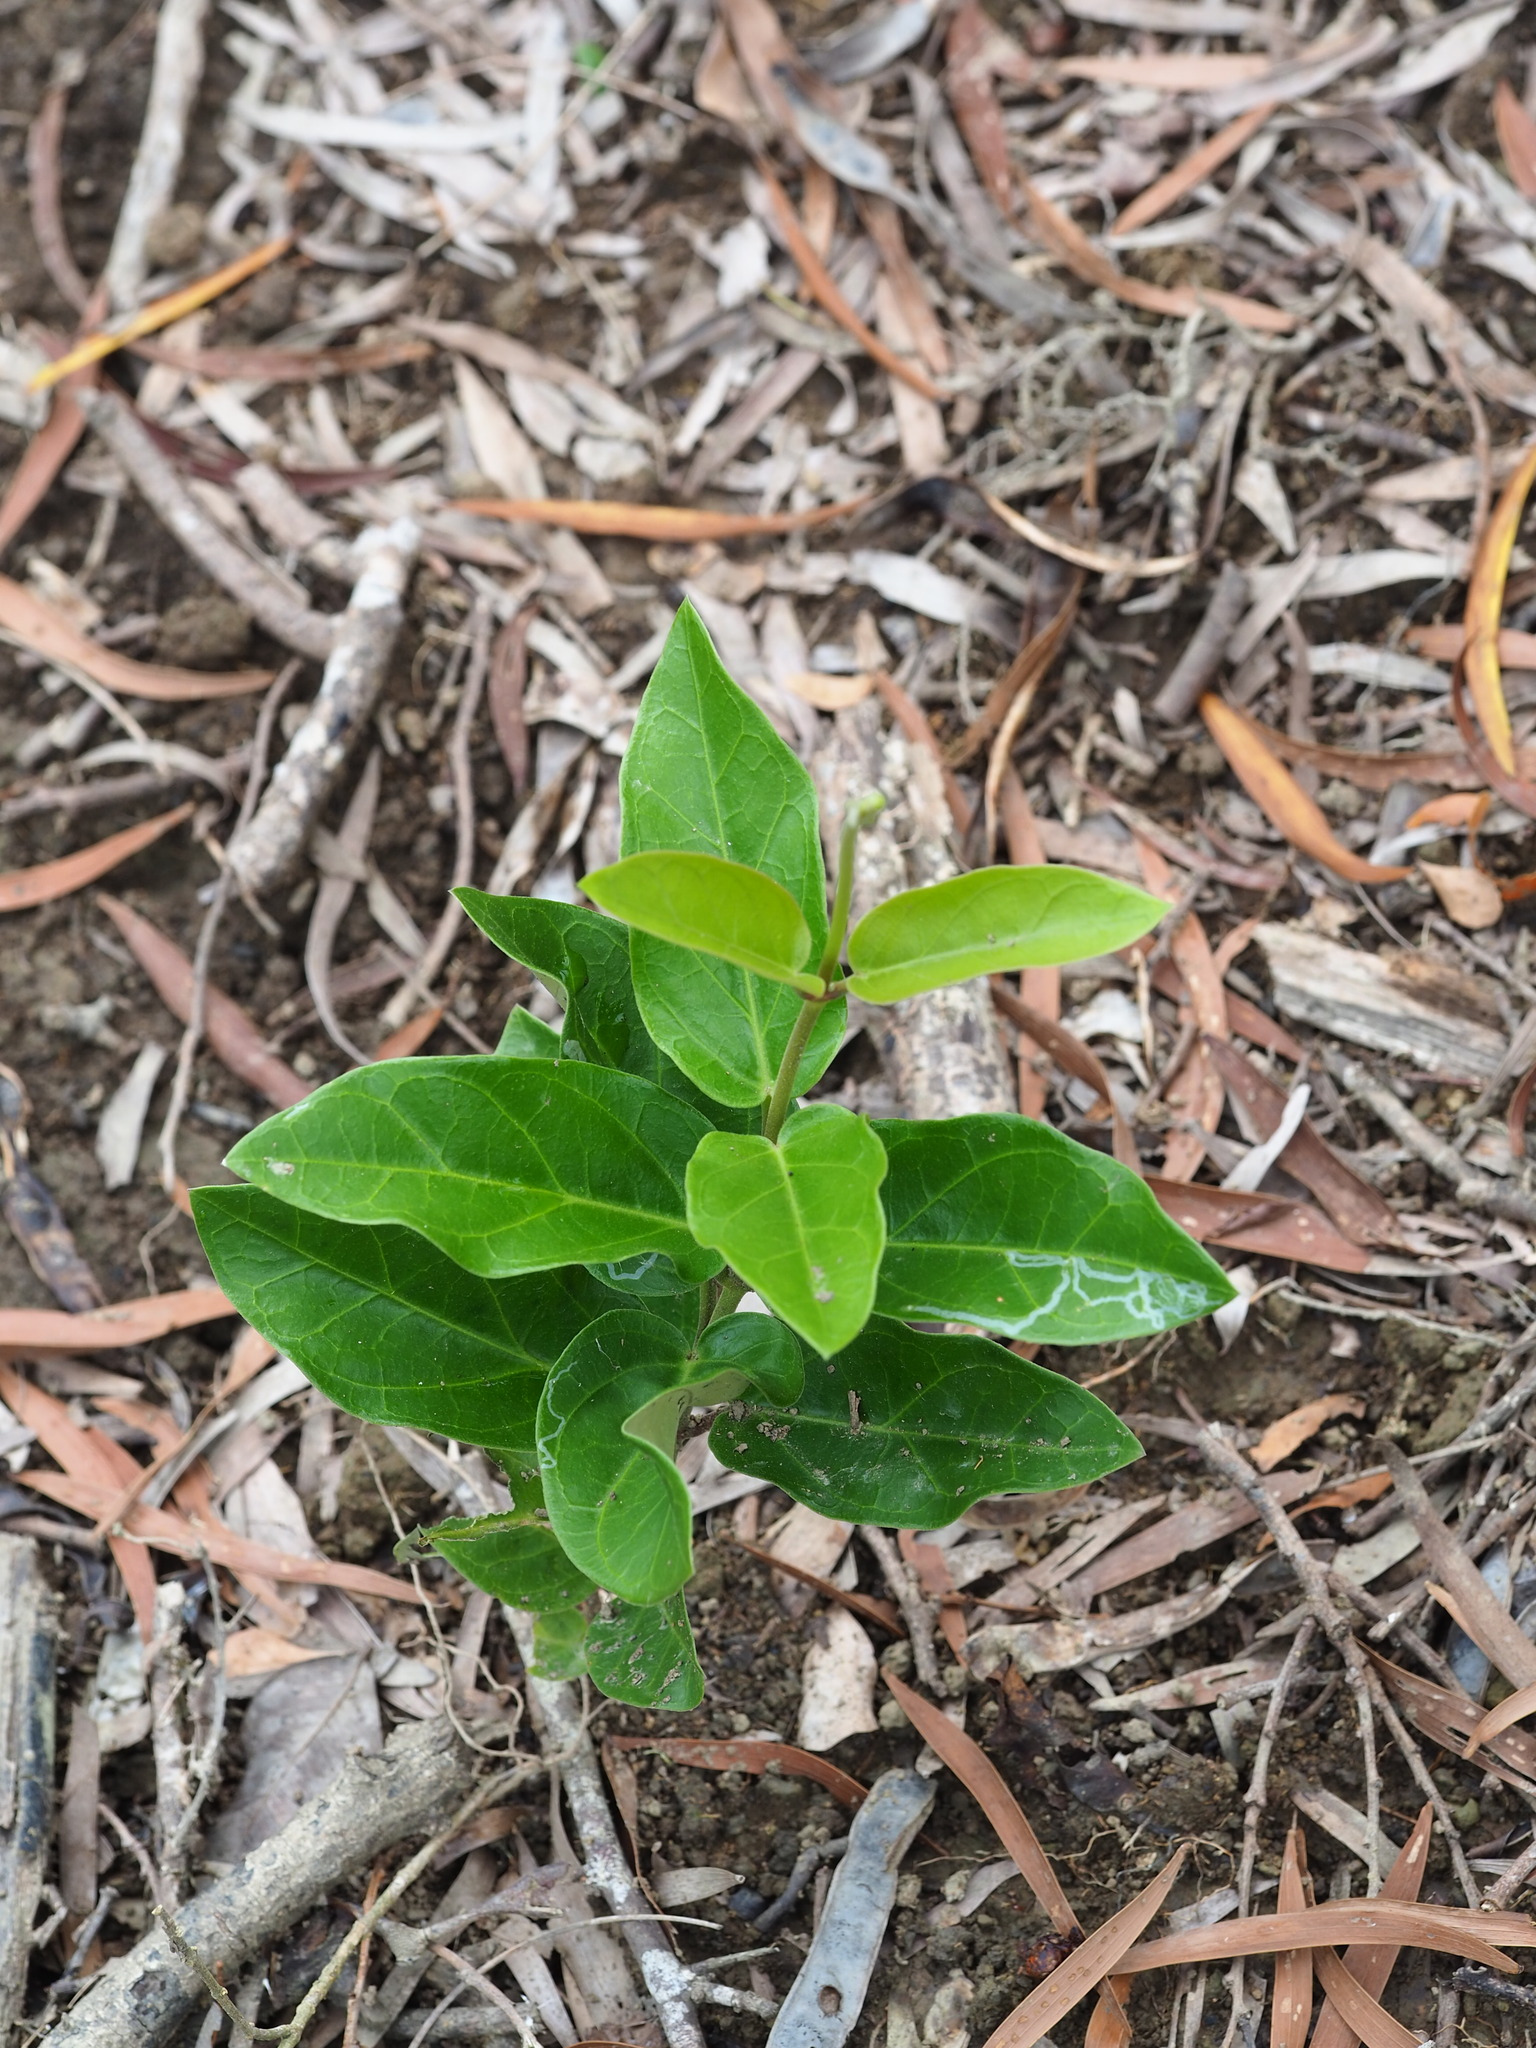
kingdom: Plantae
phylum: Tracheophyta
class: Magnoliopsida
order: Gentianales
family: Apocynaceae
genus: Vincetoxicum
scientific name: Vincetoxicum hirsutum
